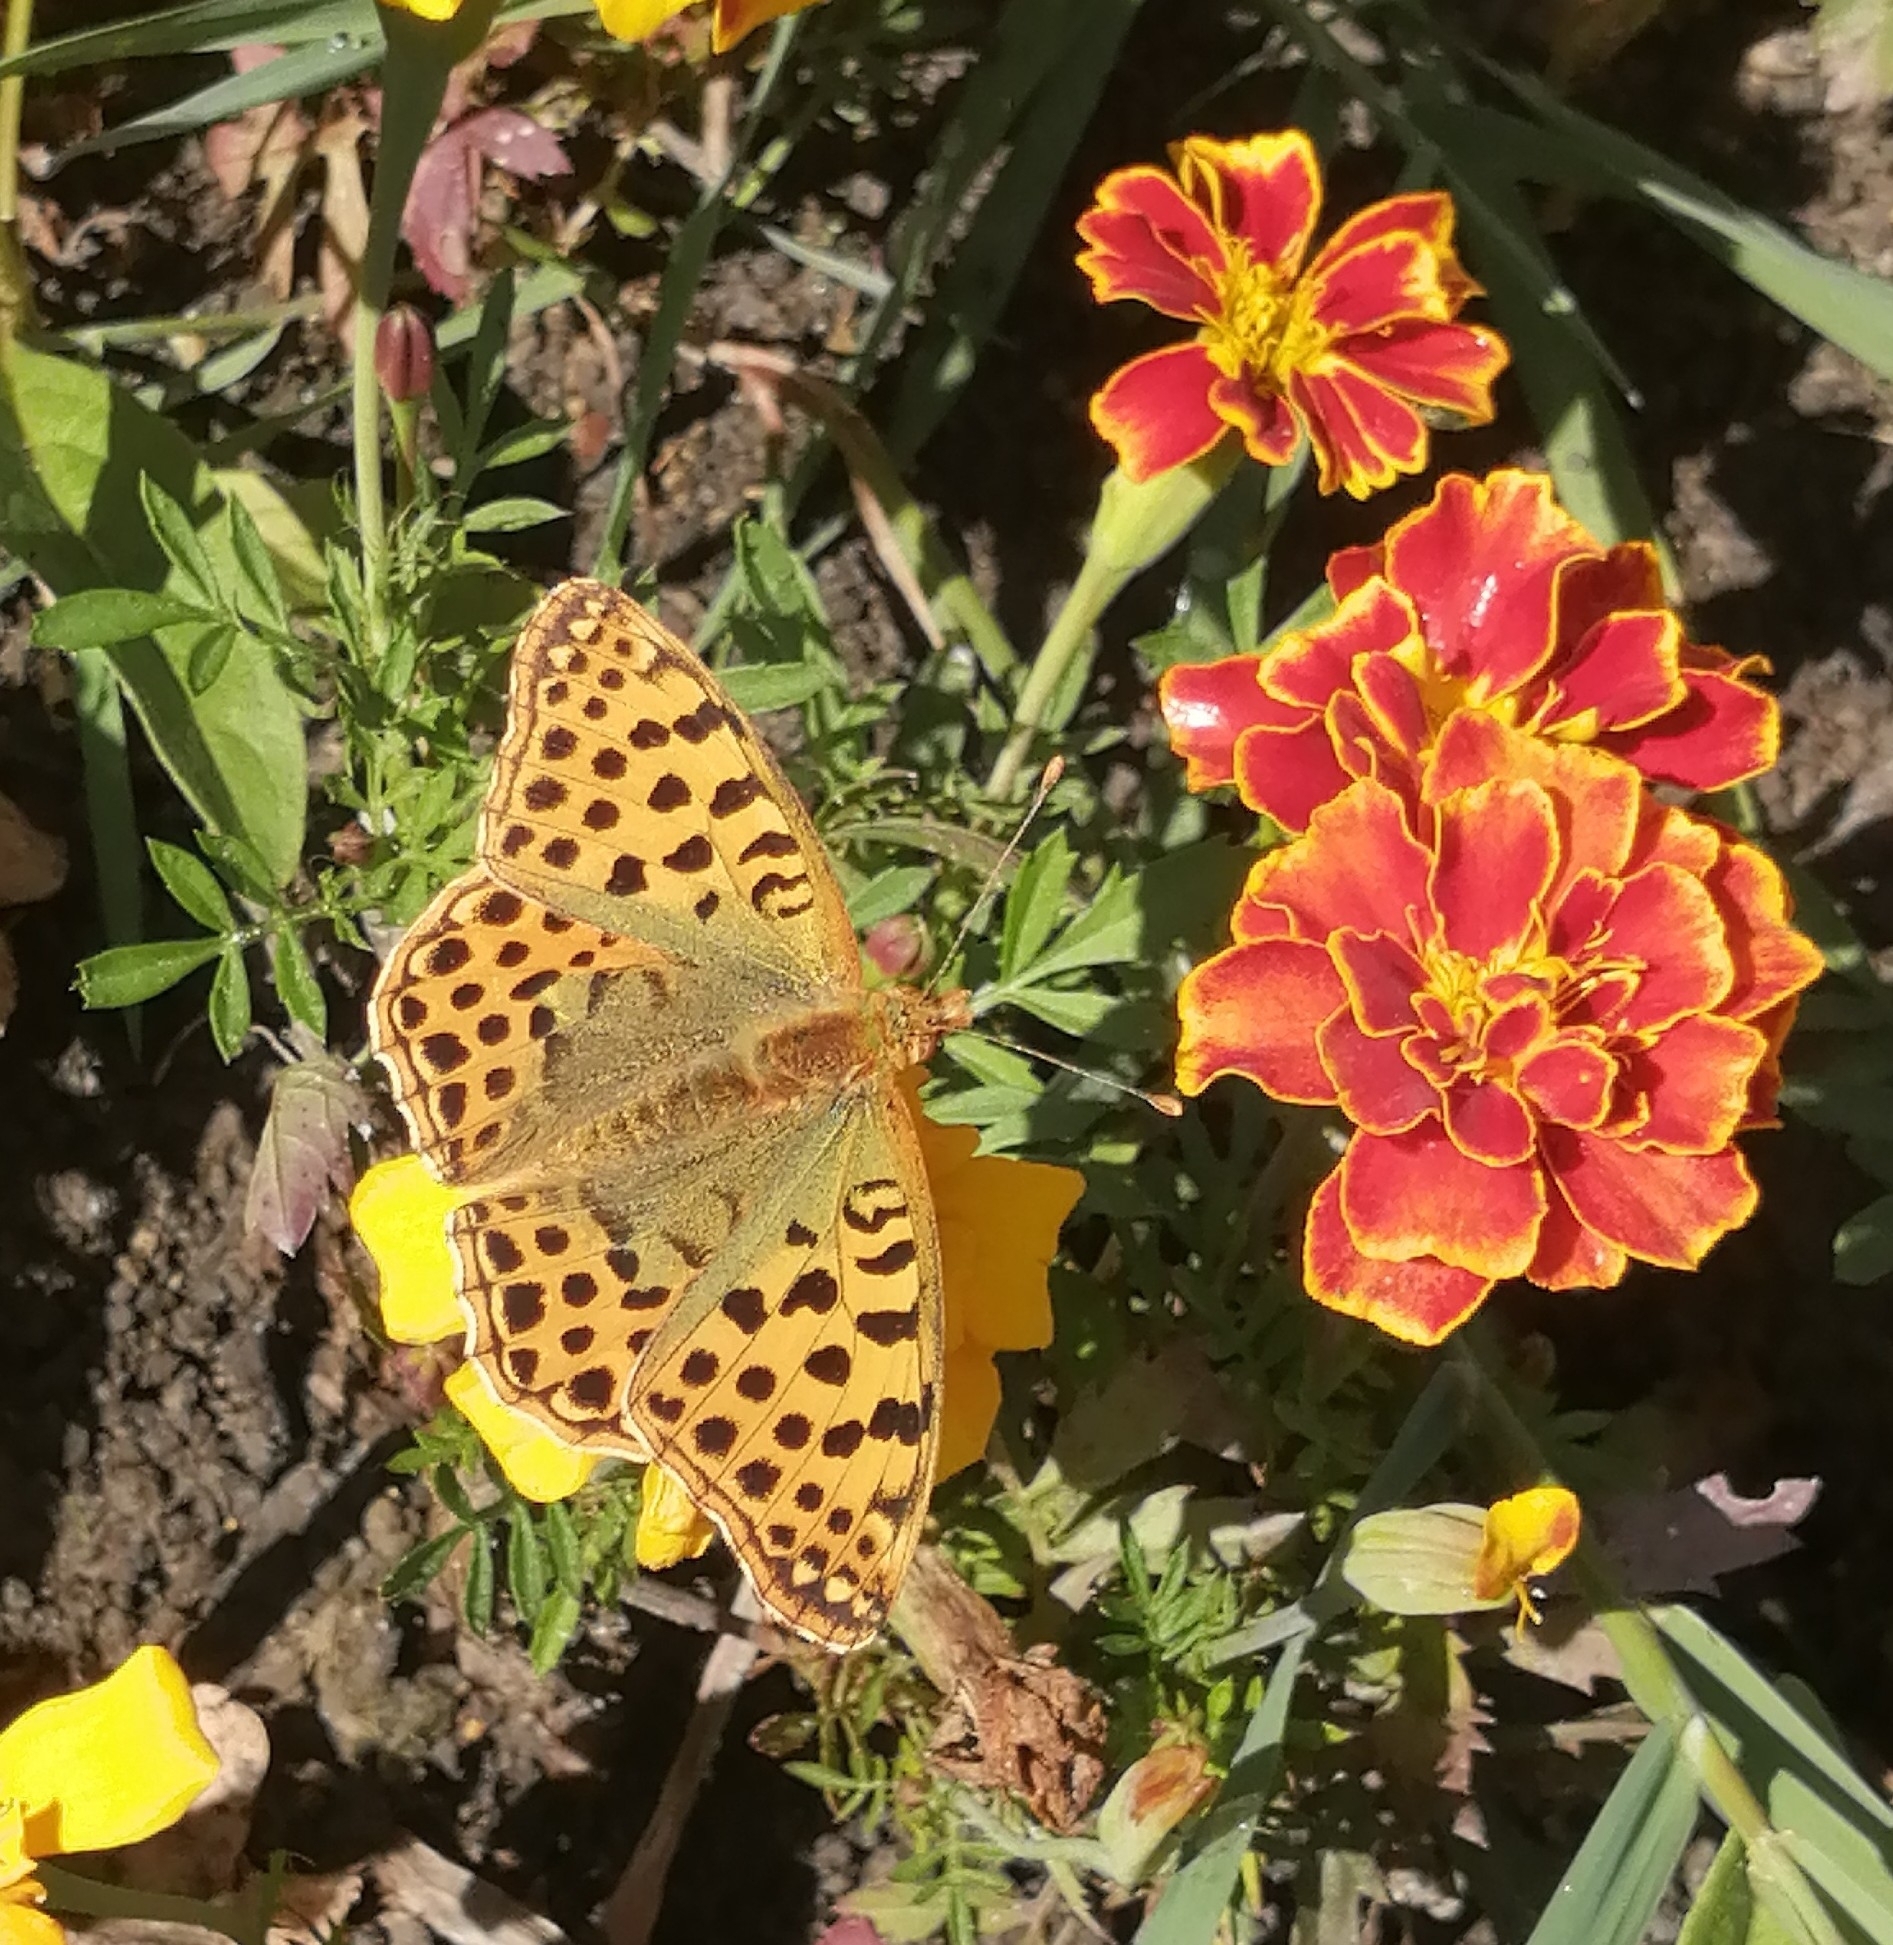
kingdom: Animalia
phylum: Arthropoda
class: Insecta
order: Lepidoptera
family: Nymphalidae
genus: Issoria
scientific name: Issoria lathonia
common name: Queen of spain fritillary
